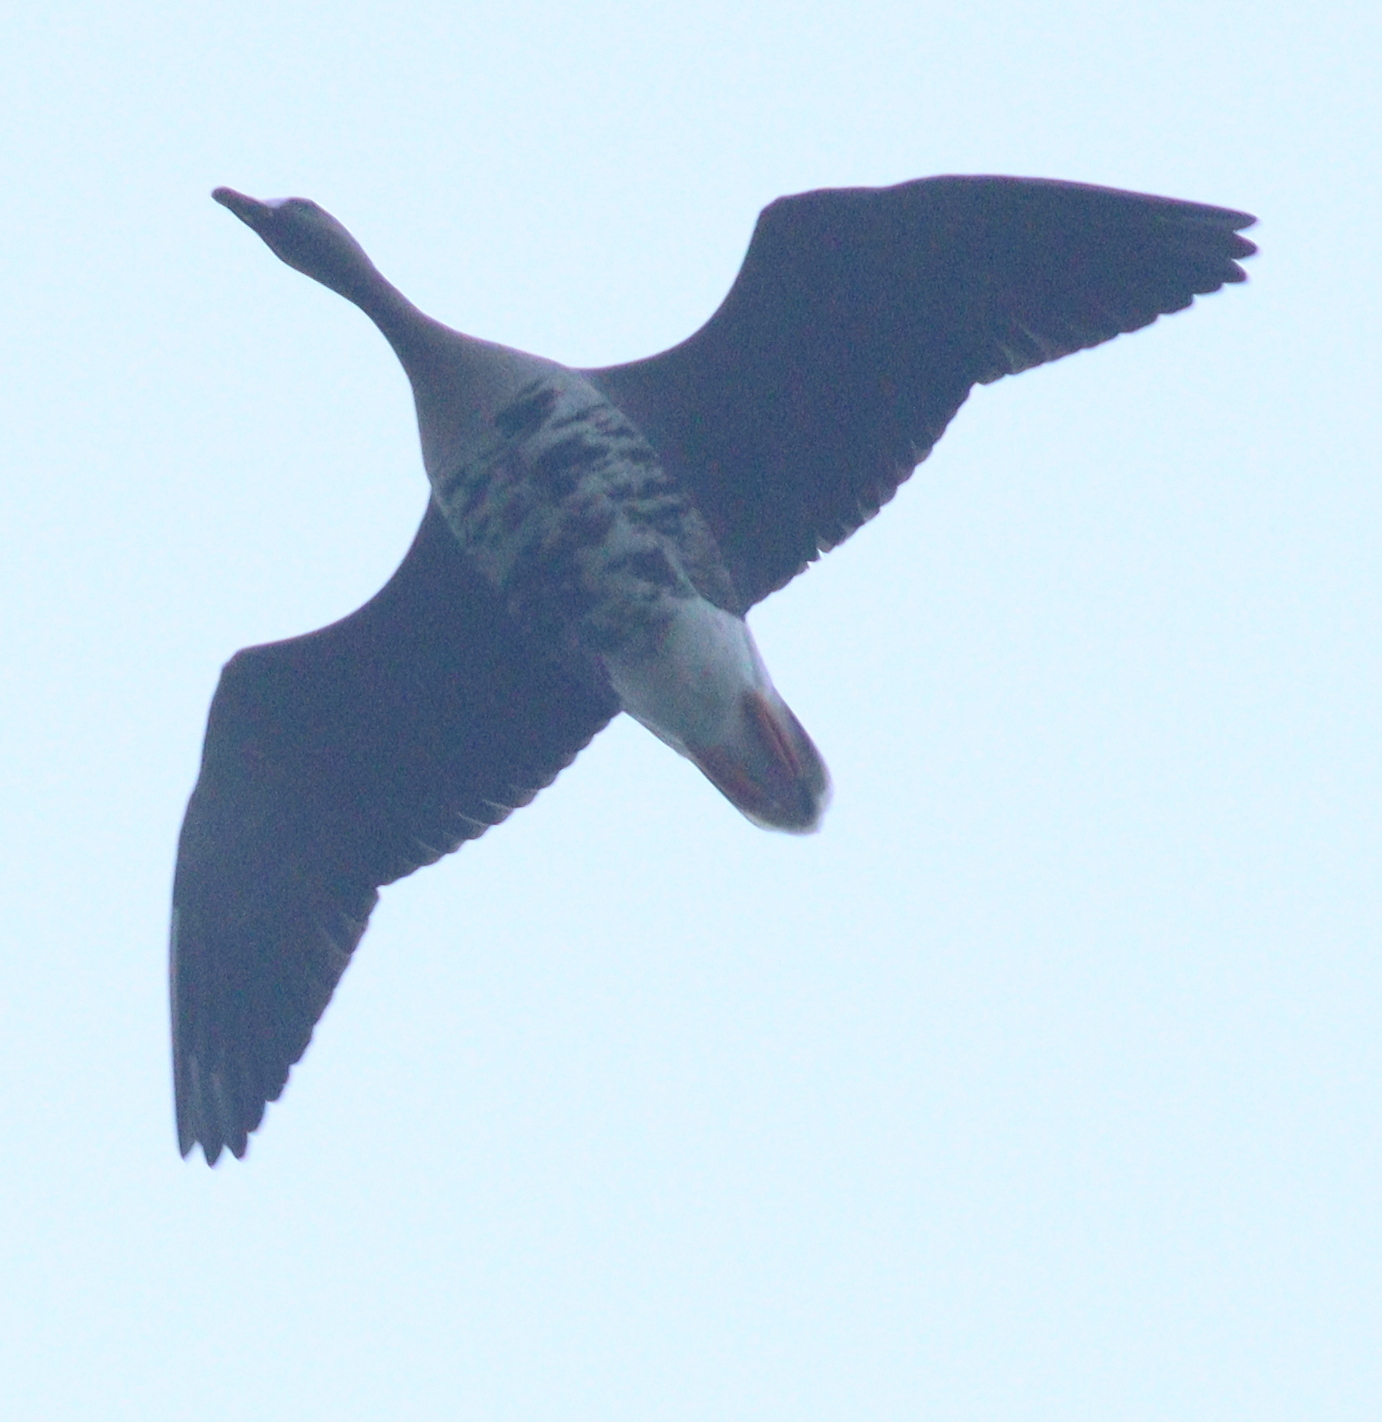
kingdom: Animalia
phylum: Chordata
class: Aves
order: Anseriformes
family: Anatidae
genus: Anser
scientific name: Anser albifrons
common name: Greater white-fronted goose
